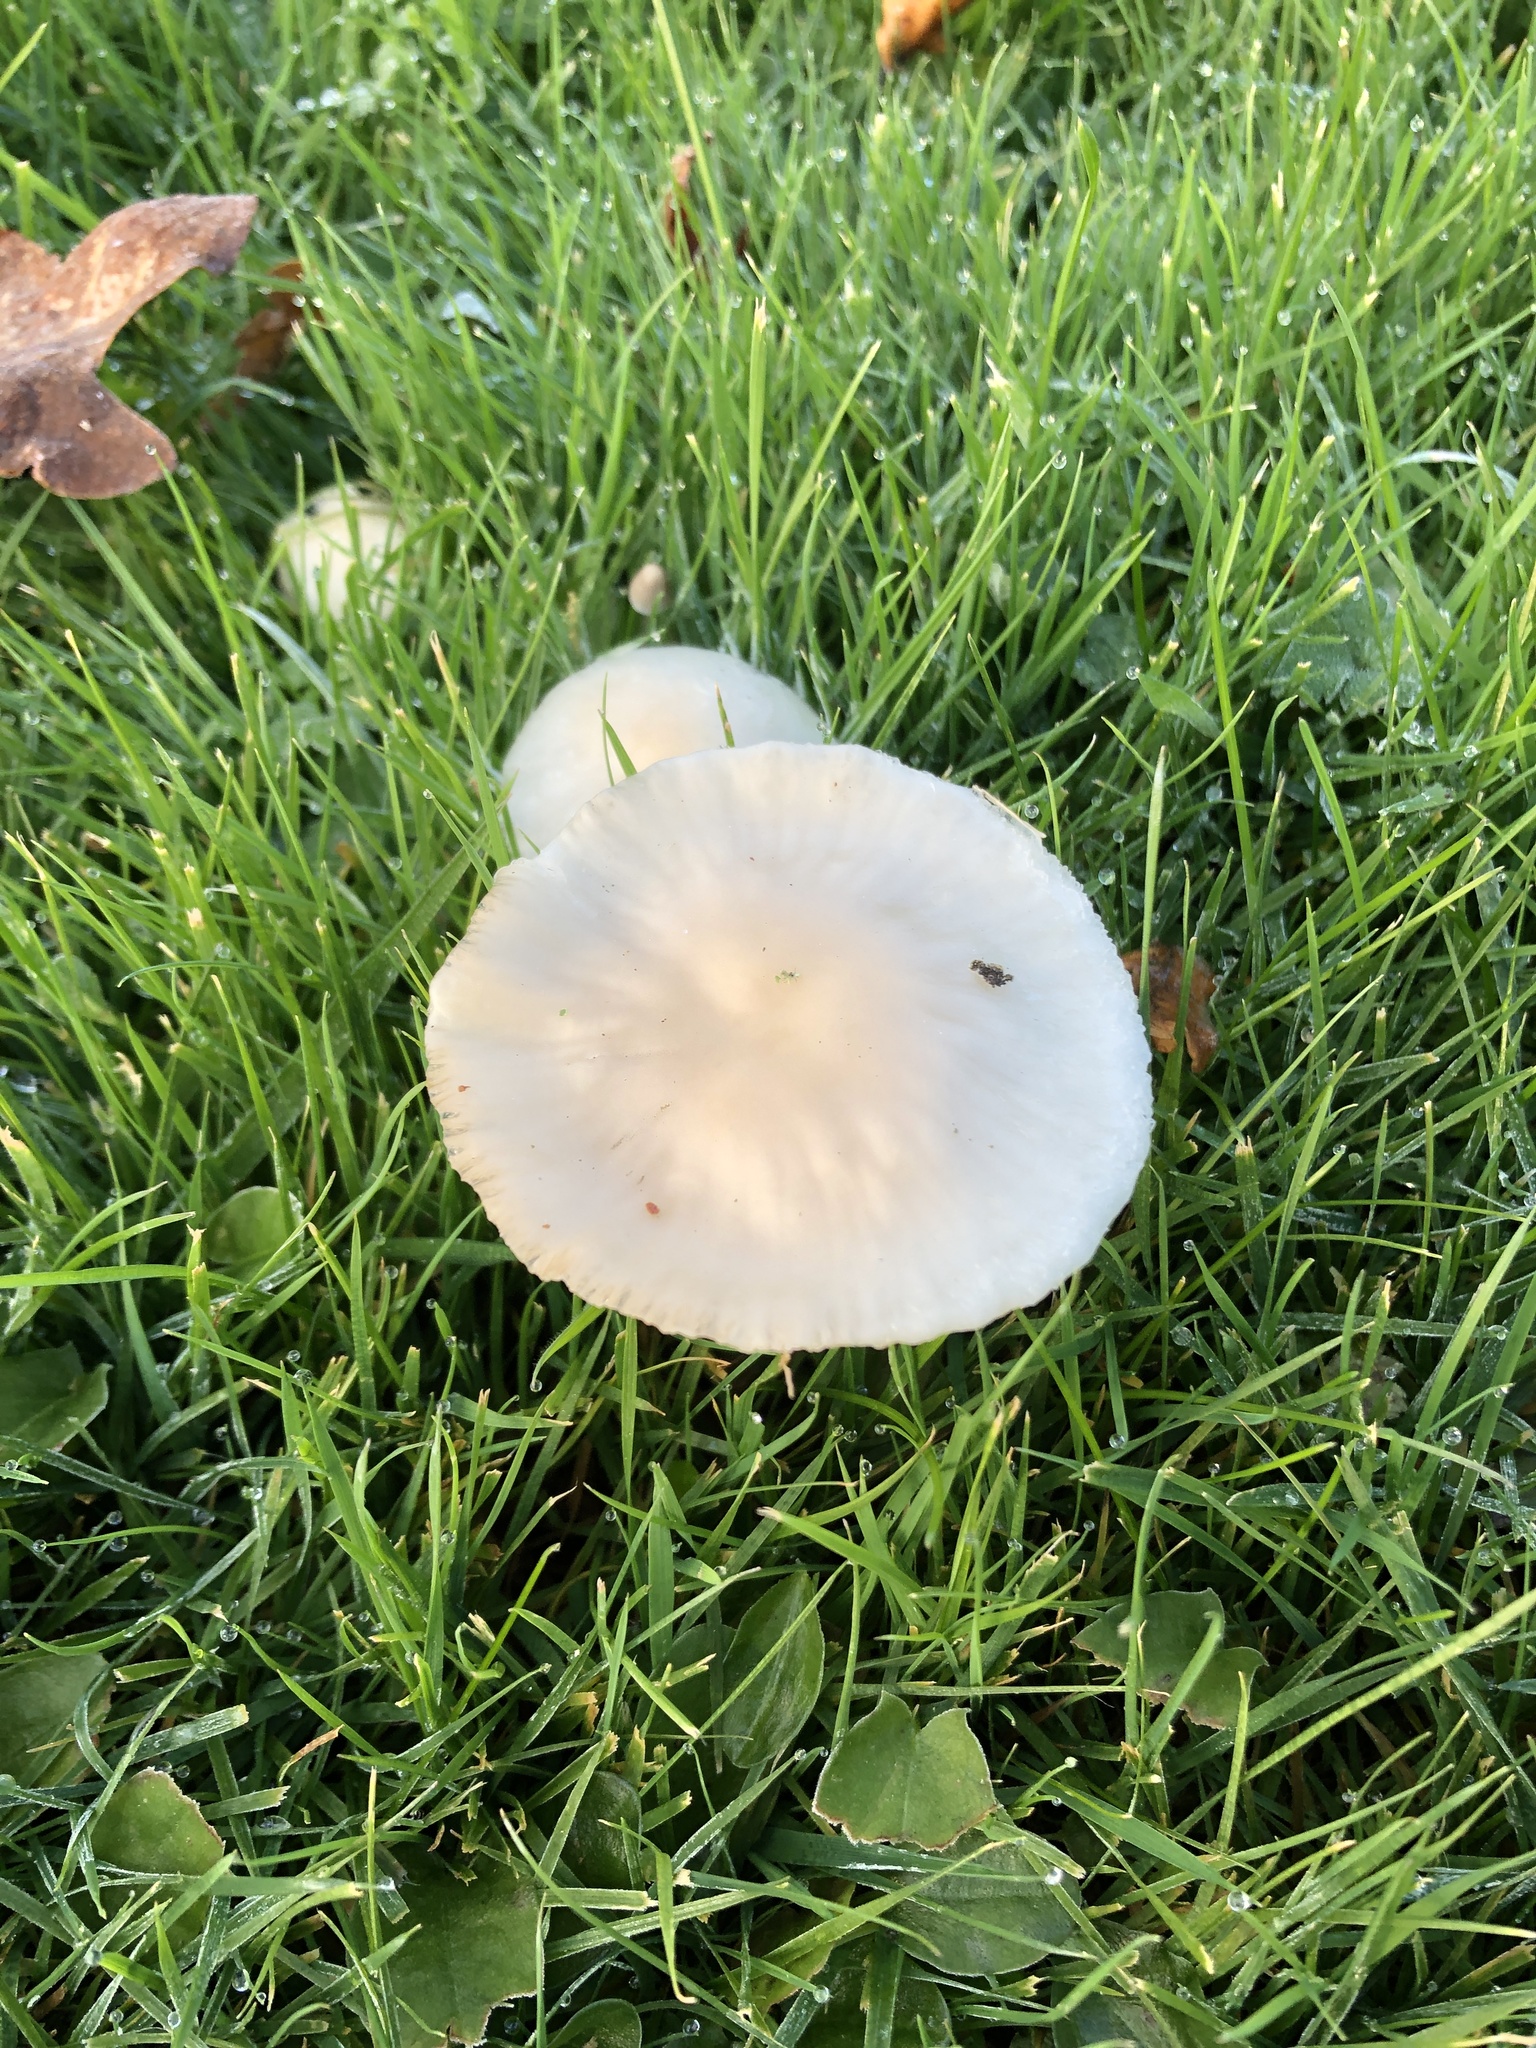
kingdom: Fungi
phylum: Basidiomycota
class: Agaricomycetes
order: Agaricales
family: Hygrophoraceae
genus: Cuphophyllus
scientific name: Cuphophyllus virgineus
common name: Snowy waxcap
